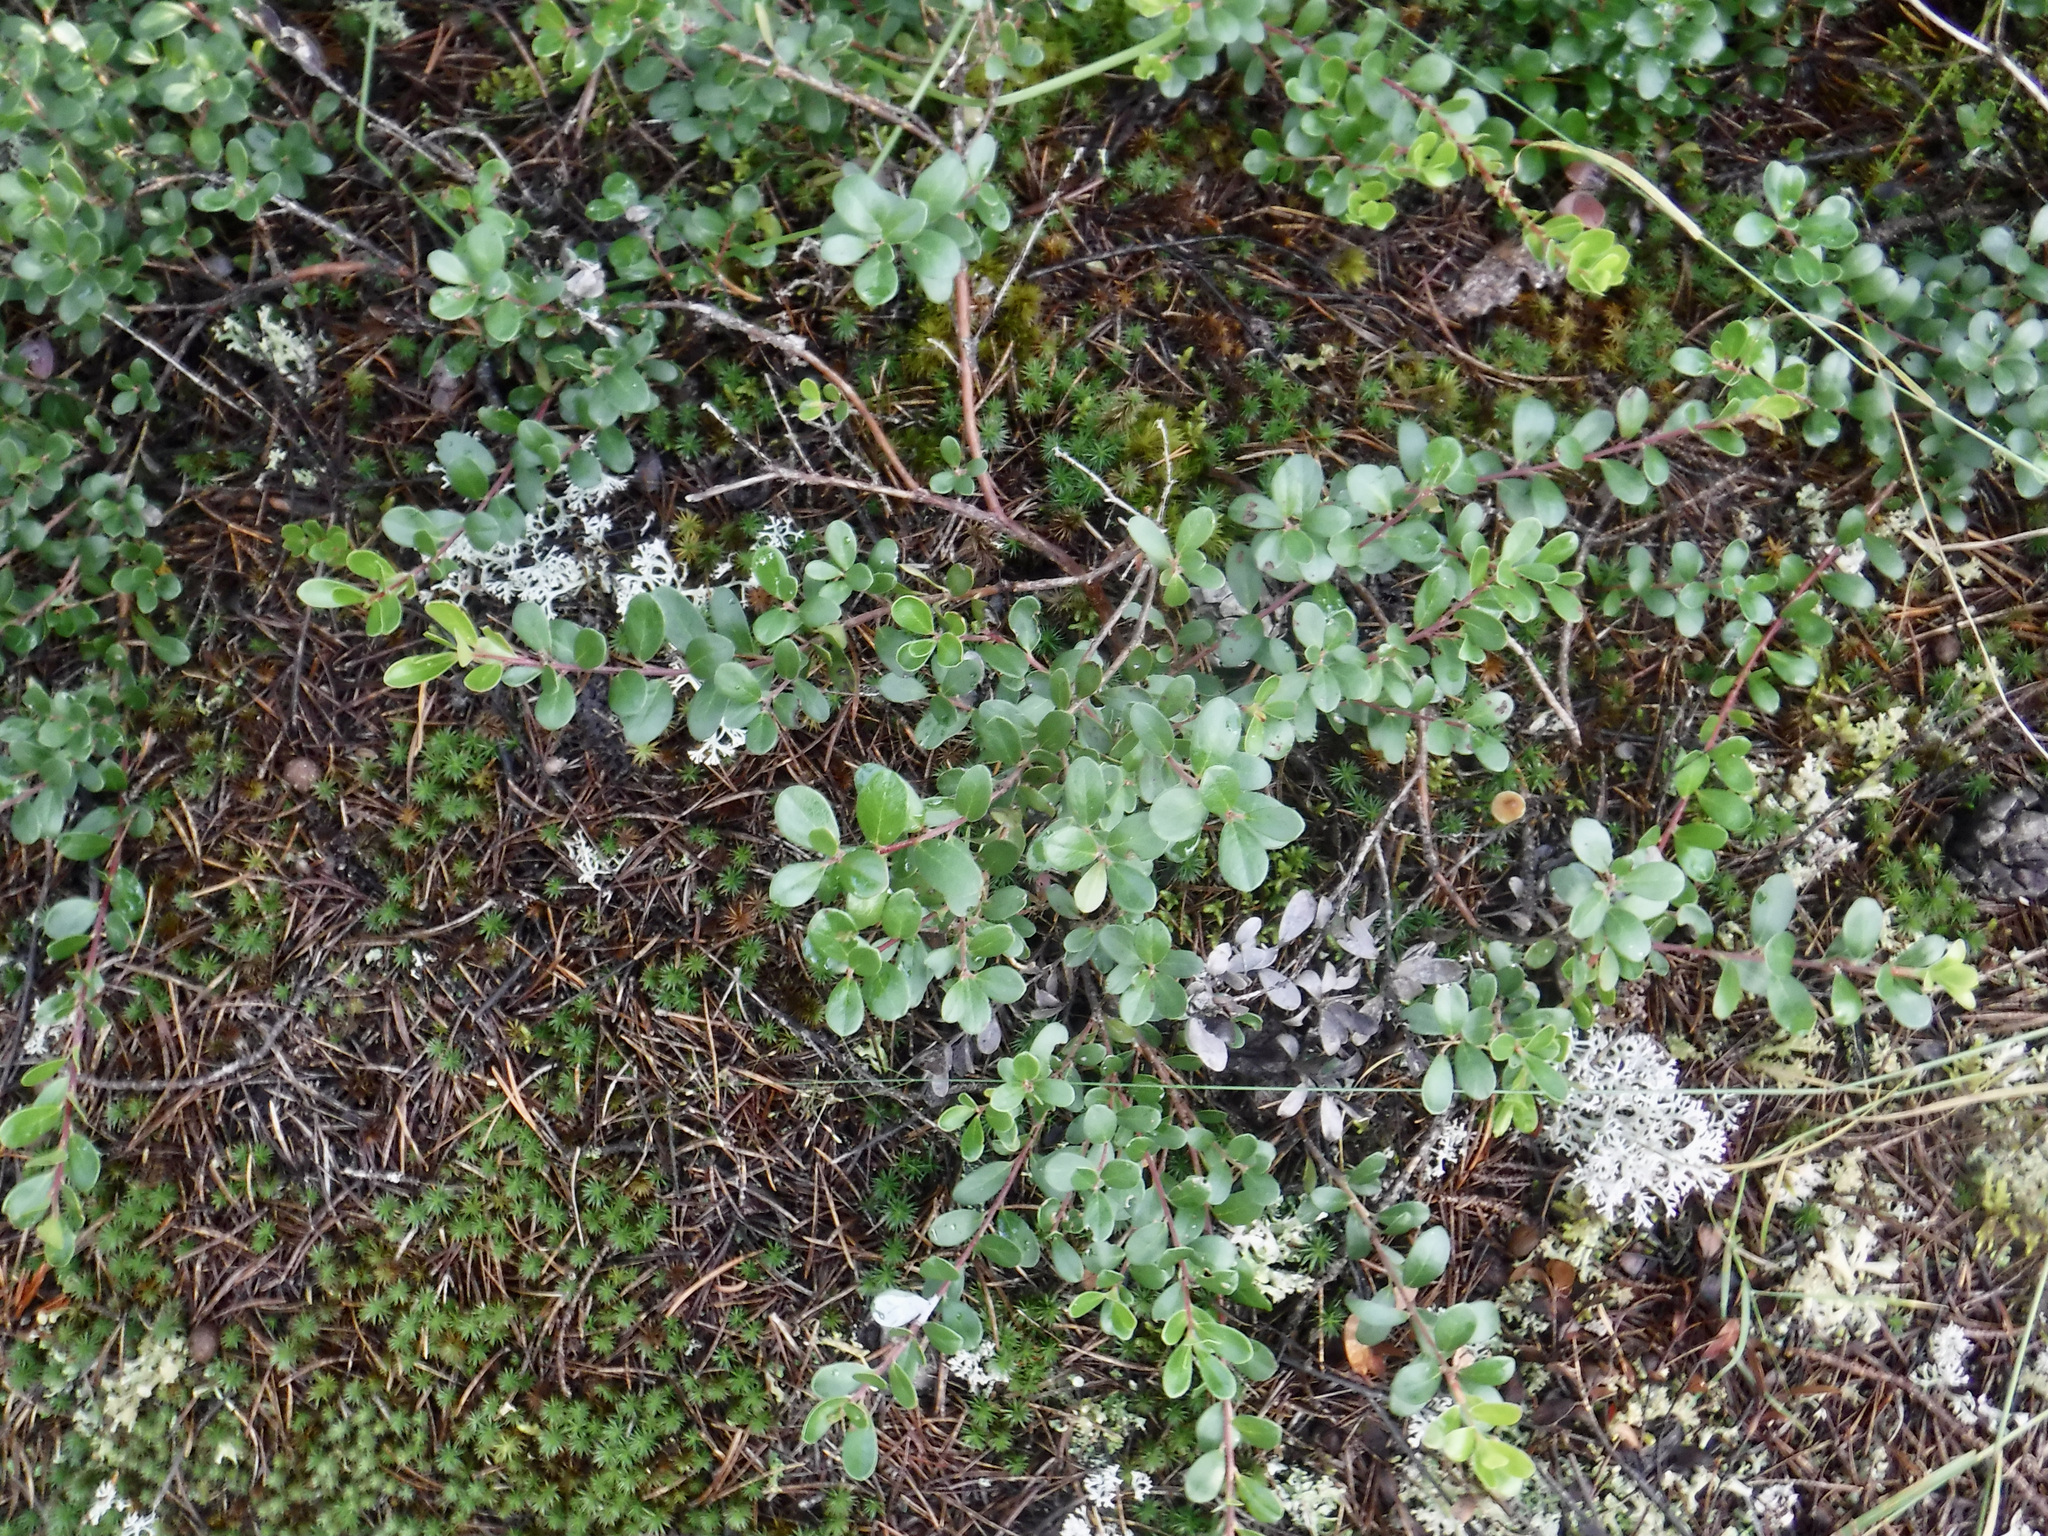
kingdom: Plantae
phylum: Tracheophyta
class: Magnoliopsida
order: Ericales
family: Ericaceae
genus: Arctostaphylos
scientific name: Arctostaphylos uva-ursi
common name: Bearberry
